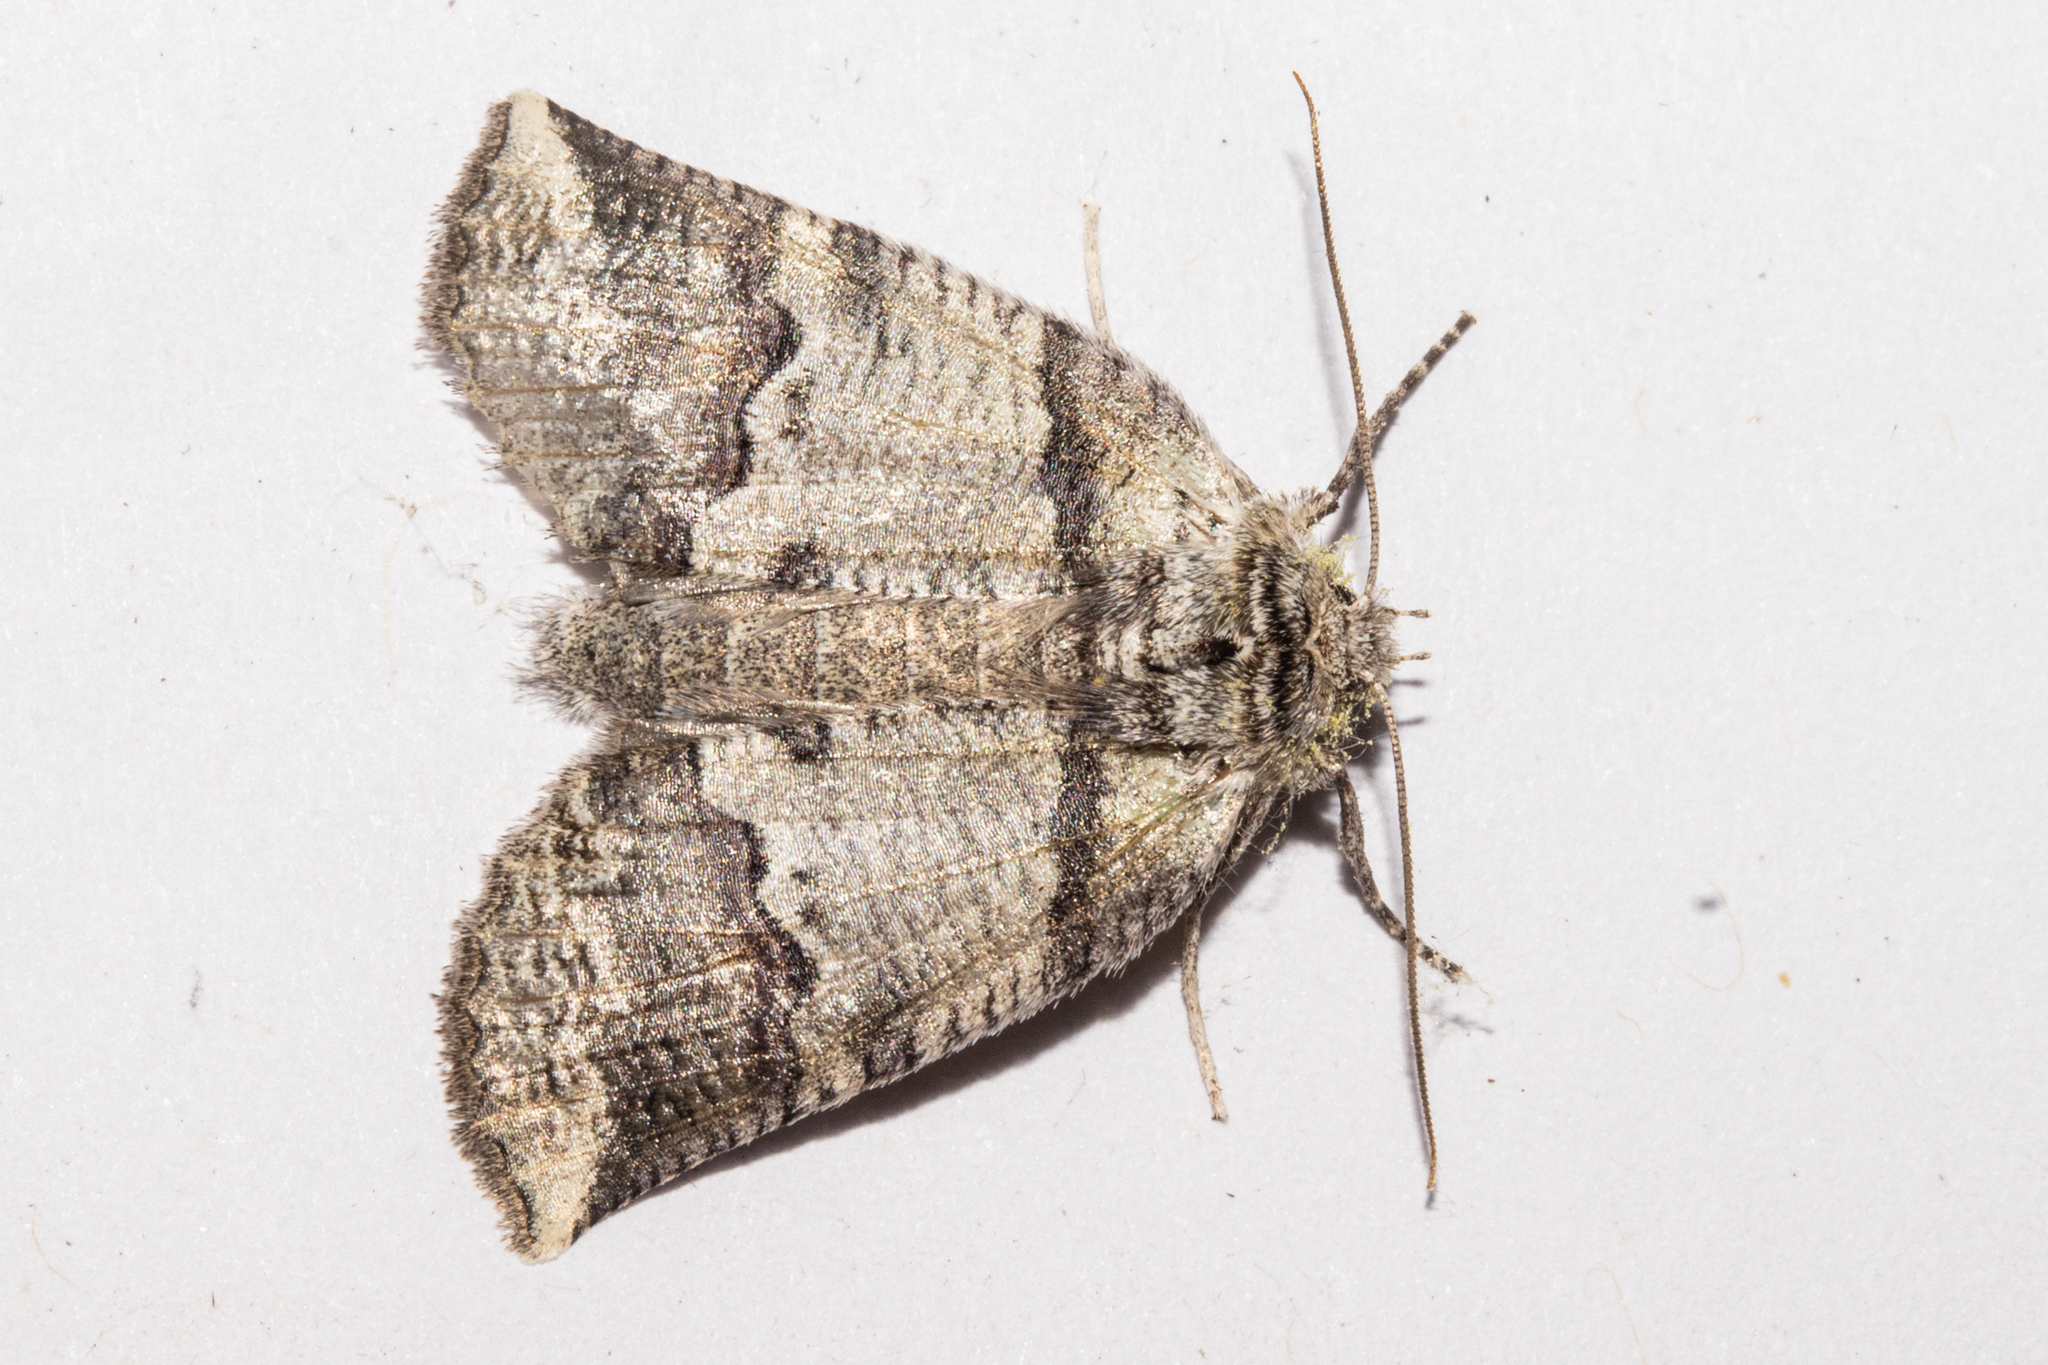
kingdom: Animalia
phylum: Arthropoda
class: Insecta
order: Lepidoptera
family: Geometridae
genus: Declana
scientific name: Declana
